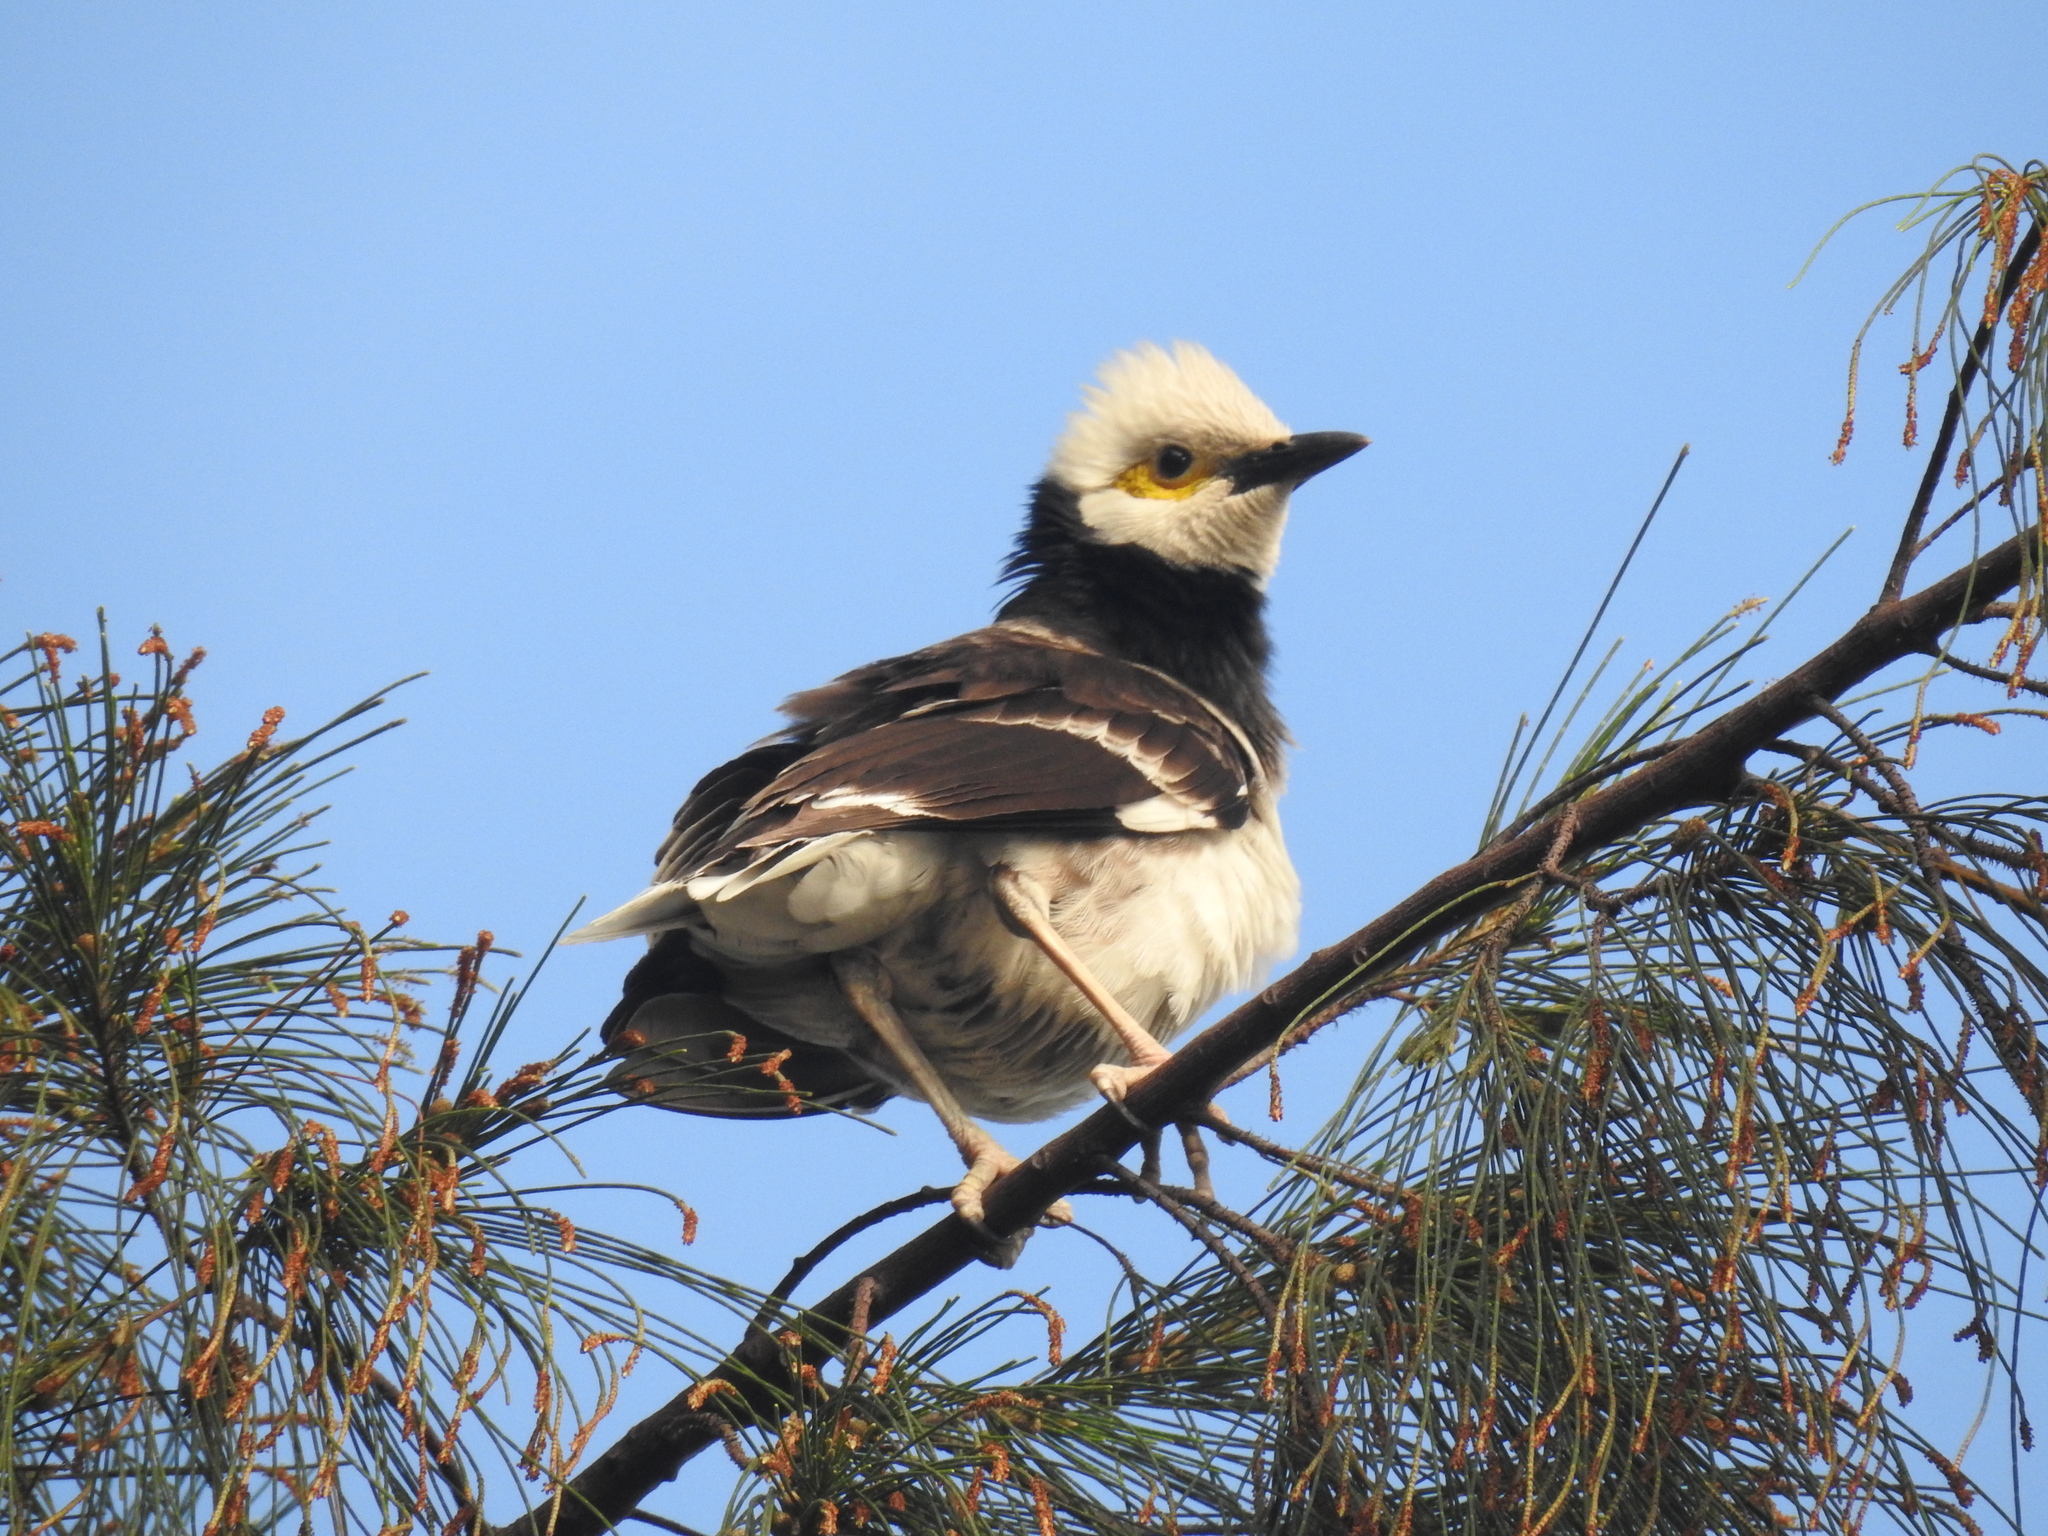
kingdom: Animalia
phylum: Chordata
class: Aves
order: Passeriformes
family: Sturnidae
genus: Gracupica
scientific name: Gracupica nigricollis
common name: Black-collared starling
